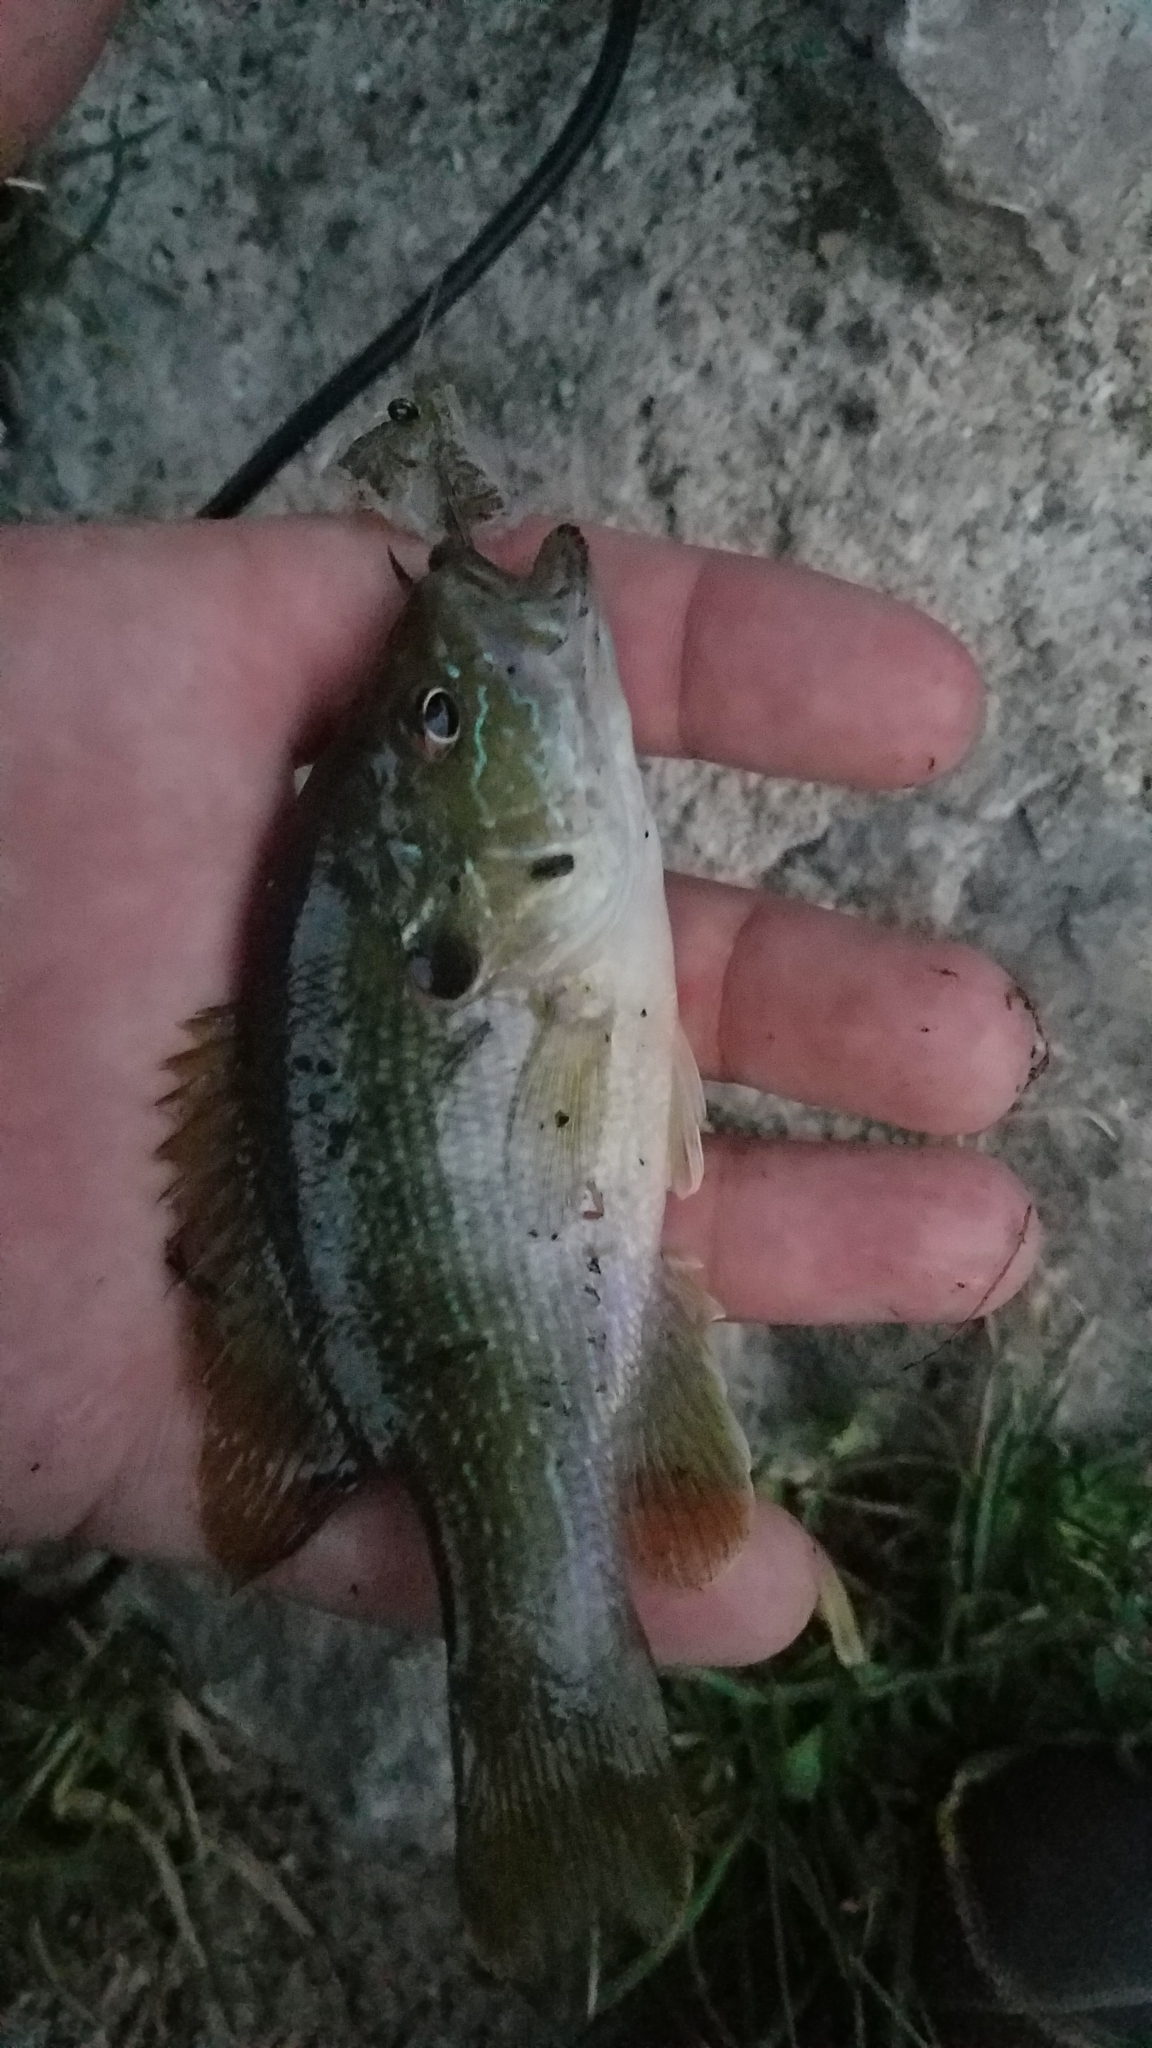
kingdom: Animalia
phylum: Chordata
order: Perciformes
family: Centrarchidae
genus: Lepomis
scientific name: Lepomis cyanellus
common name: Green sunfish
